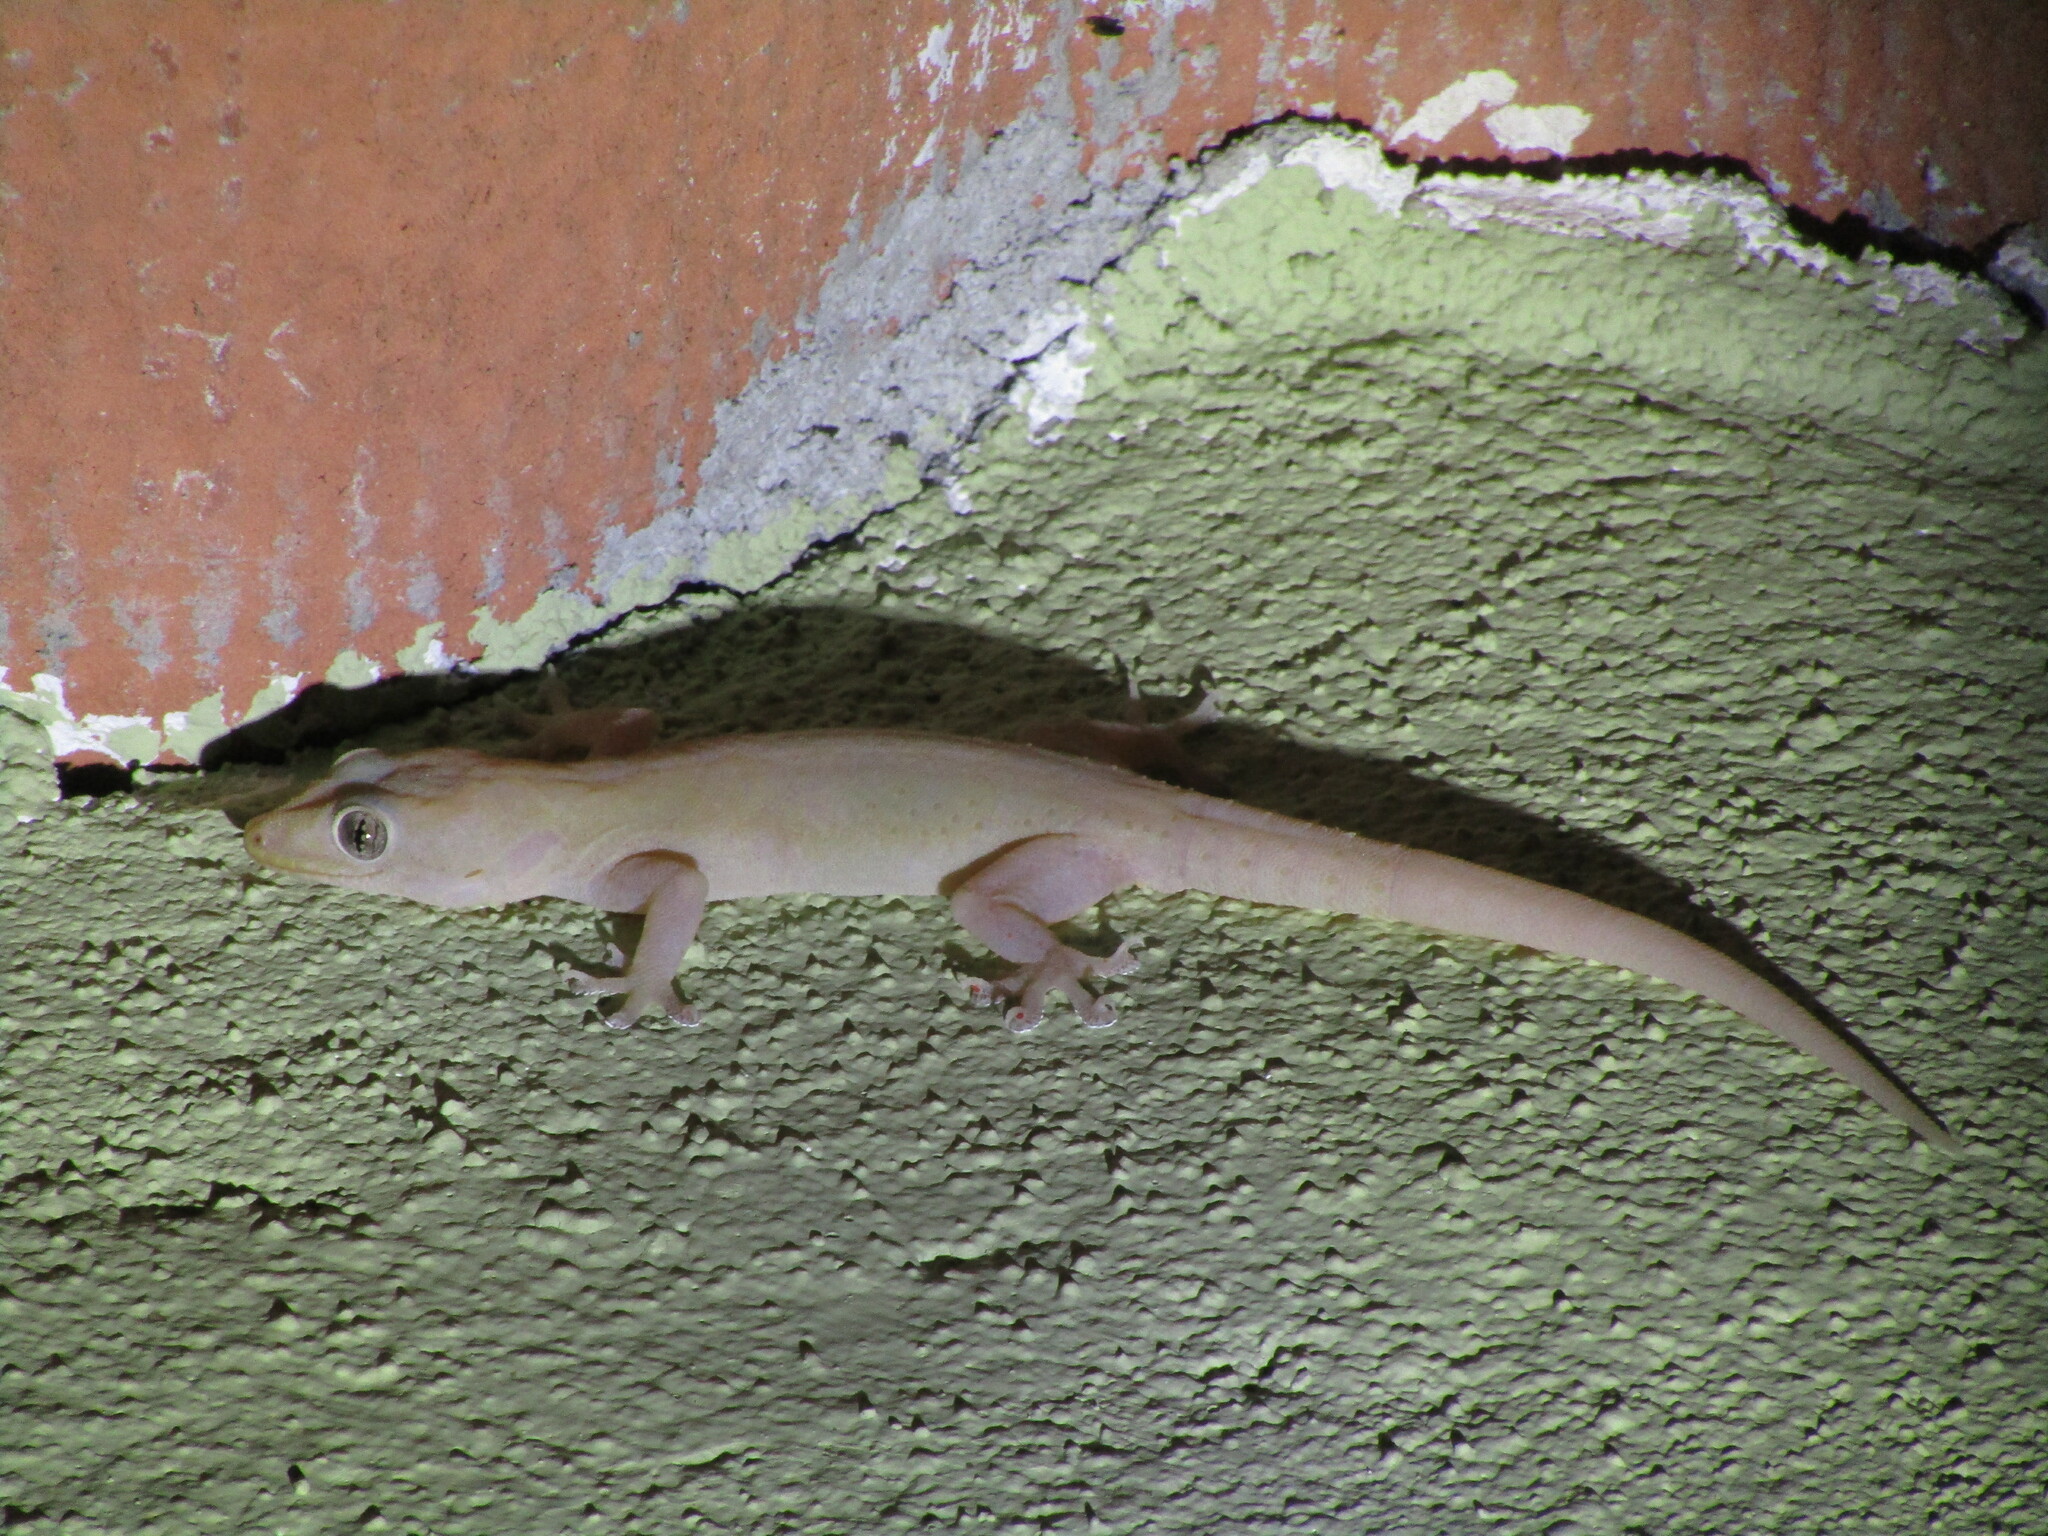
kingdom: Animalia
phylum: Chordata
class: Squamata
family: Gekkonidae
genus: Hemidactylus
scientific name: Hemidactylus frenatus
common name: Common house gecko
